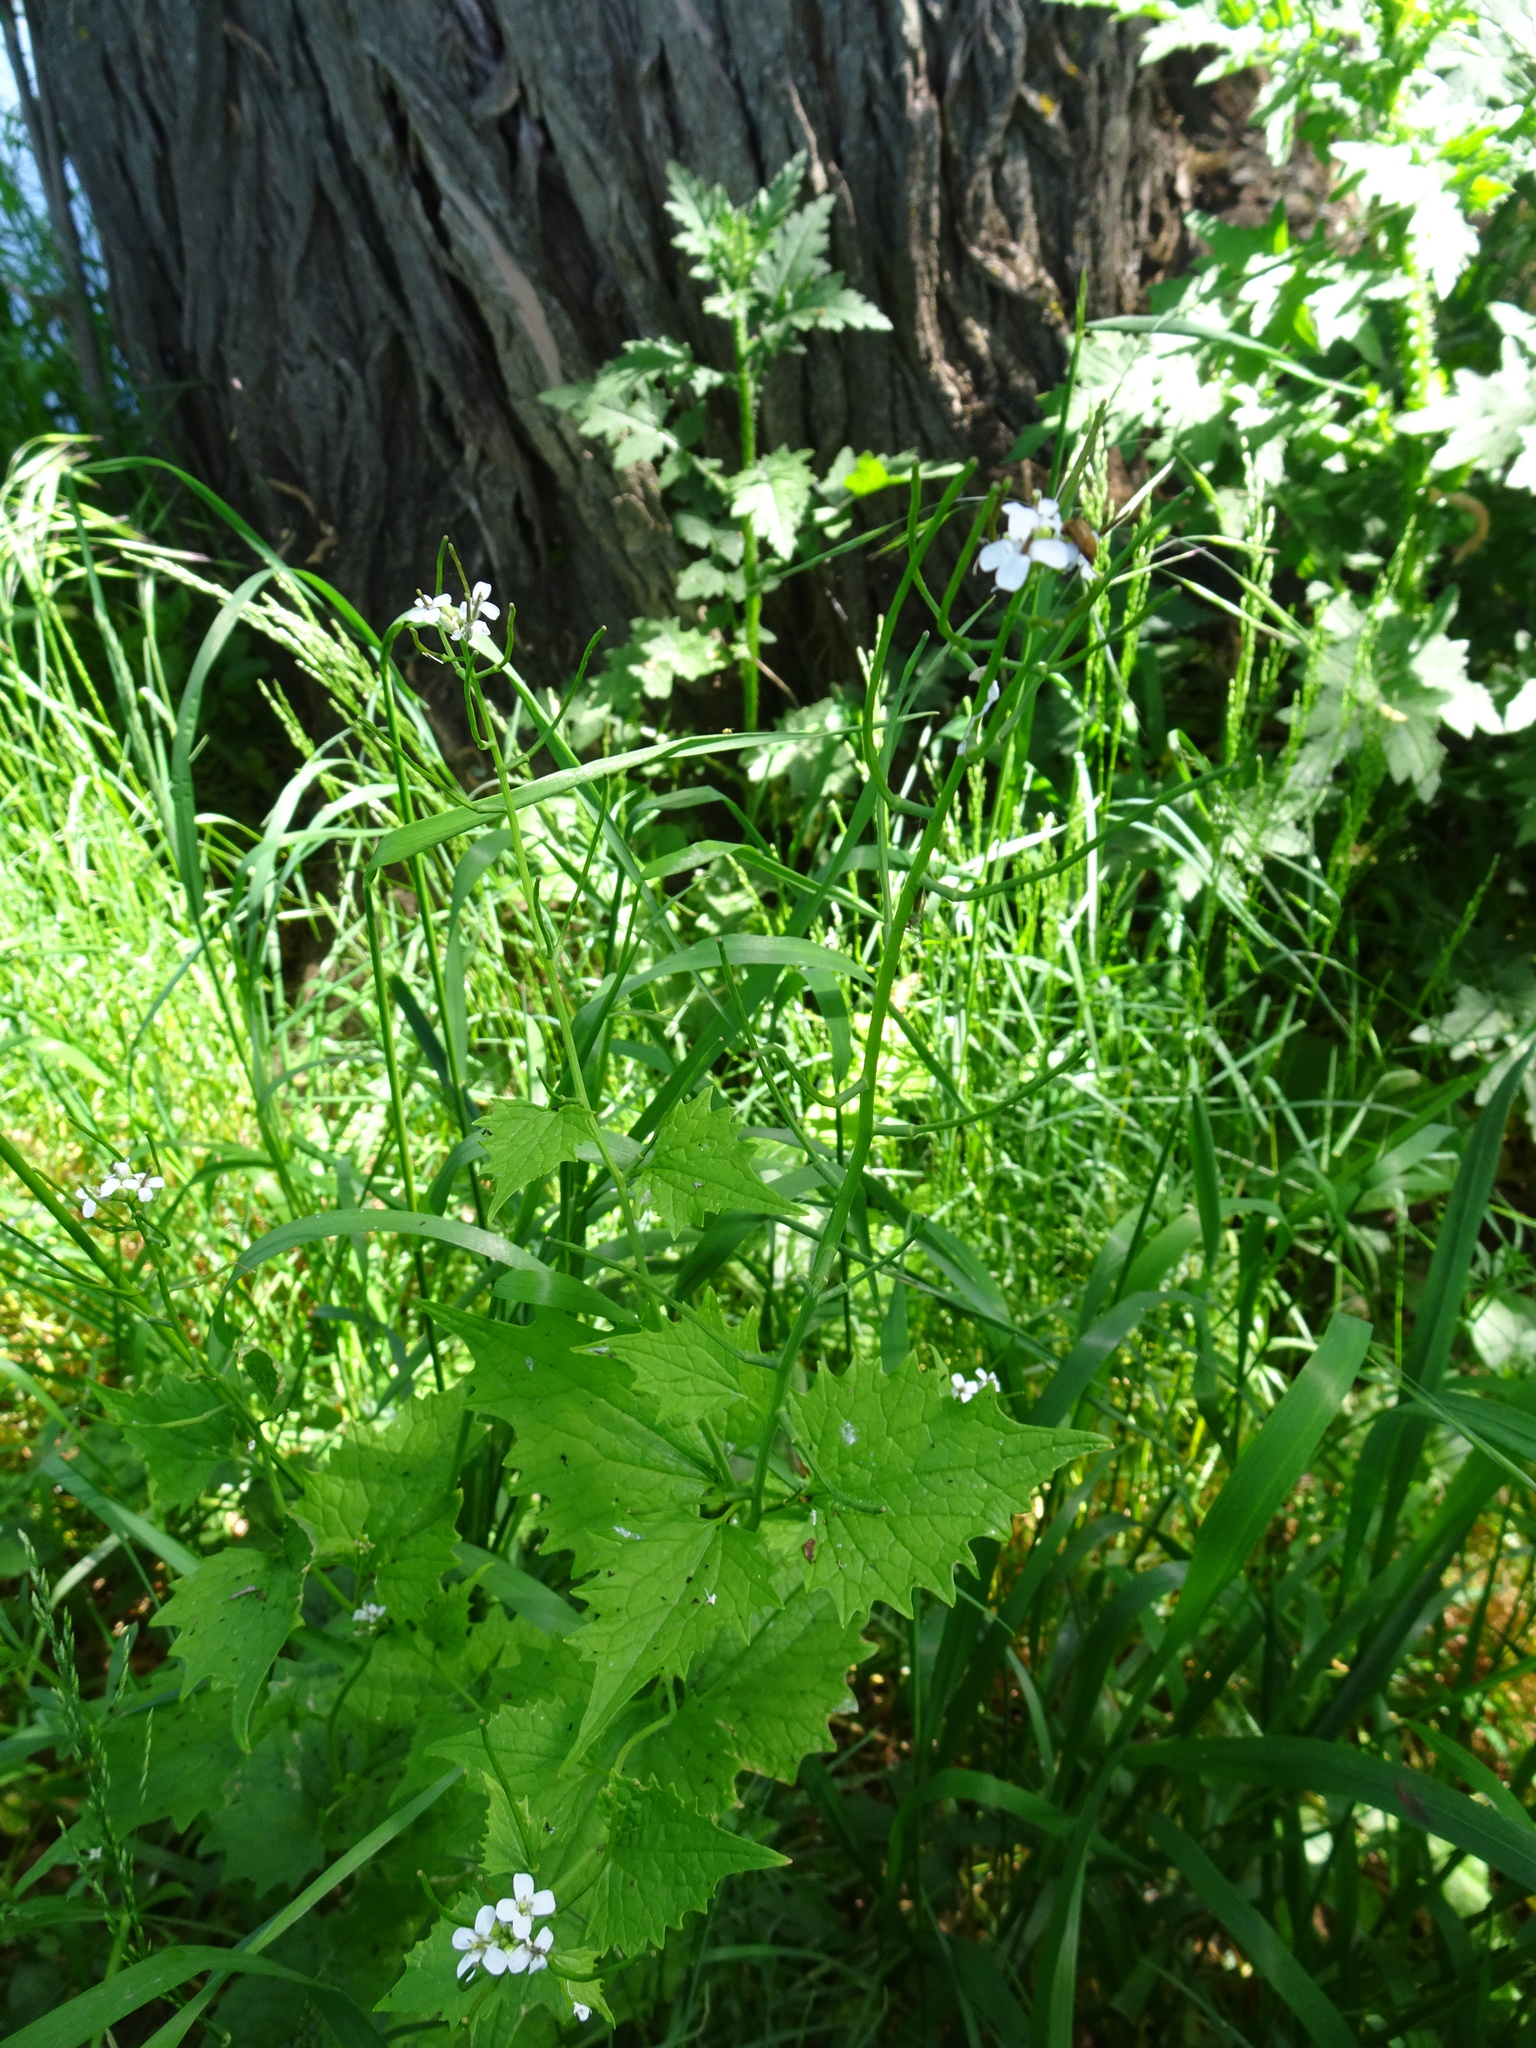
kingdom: Plantae
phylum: Tracheophyta
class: Magnoliopsida
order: Brassicales
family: Brassicaceae
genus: Alliaria
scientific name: Alliaria petiolata
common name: Garlic mustard
